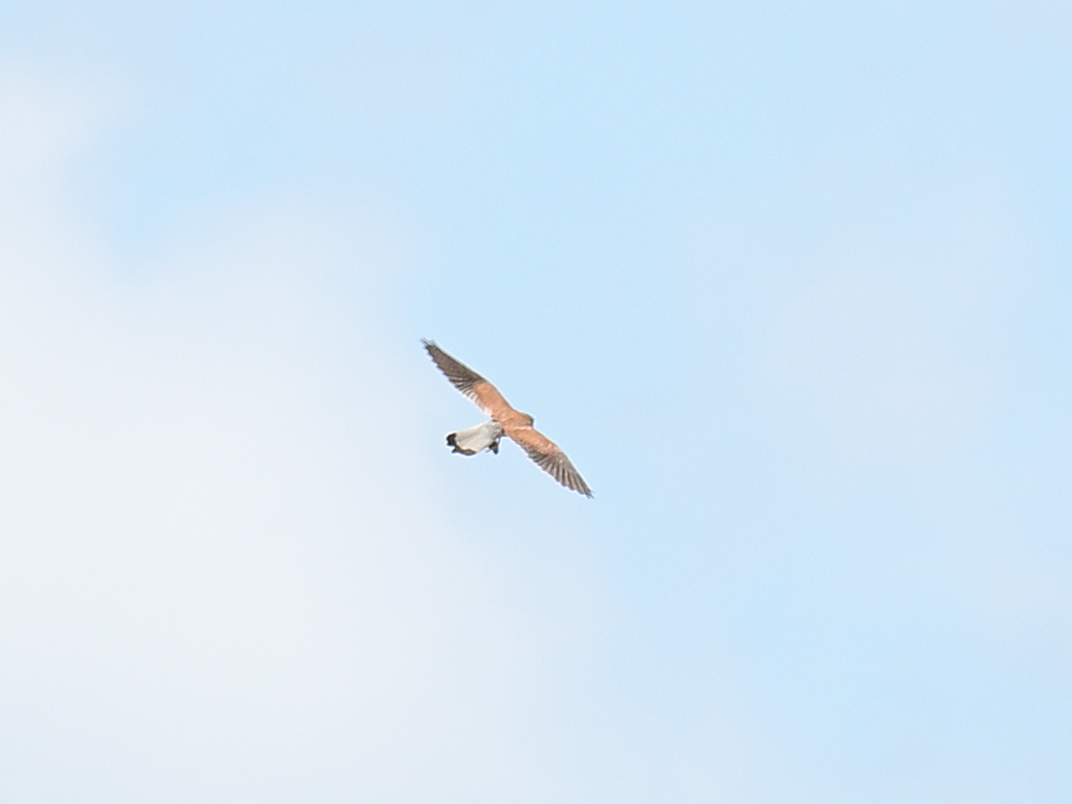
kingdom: Animalia
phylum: Chordata
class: Aves
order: Falconiformes
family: Falconidae
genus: Falco
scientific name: Falco tinnunculus
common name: Common kestrel
